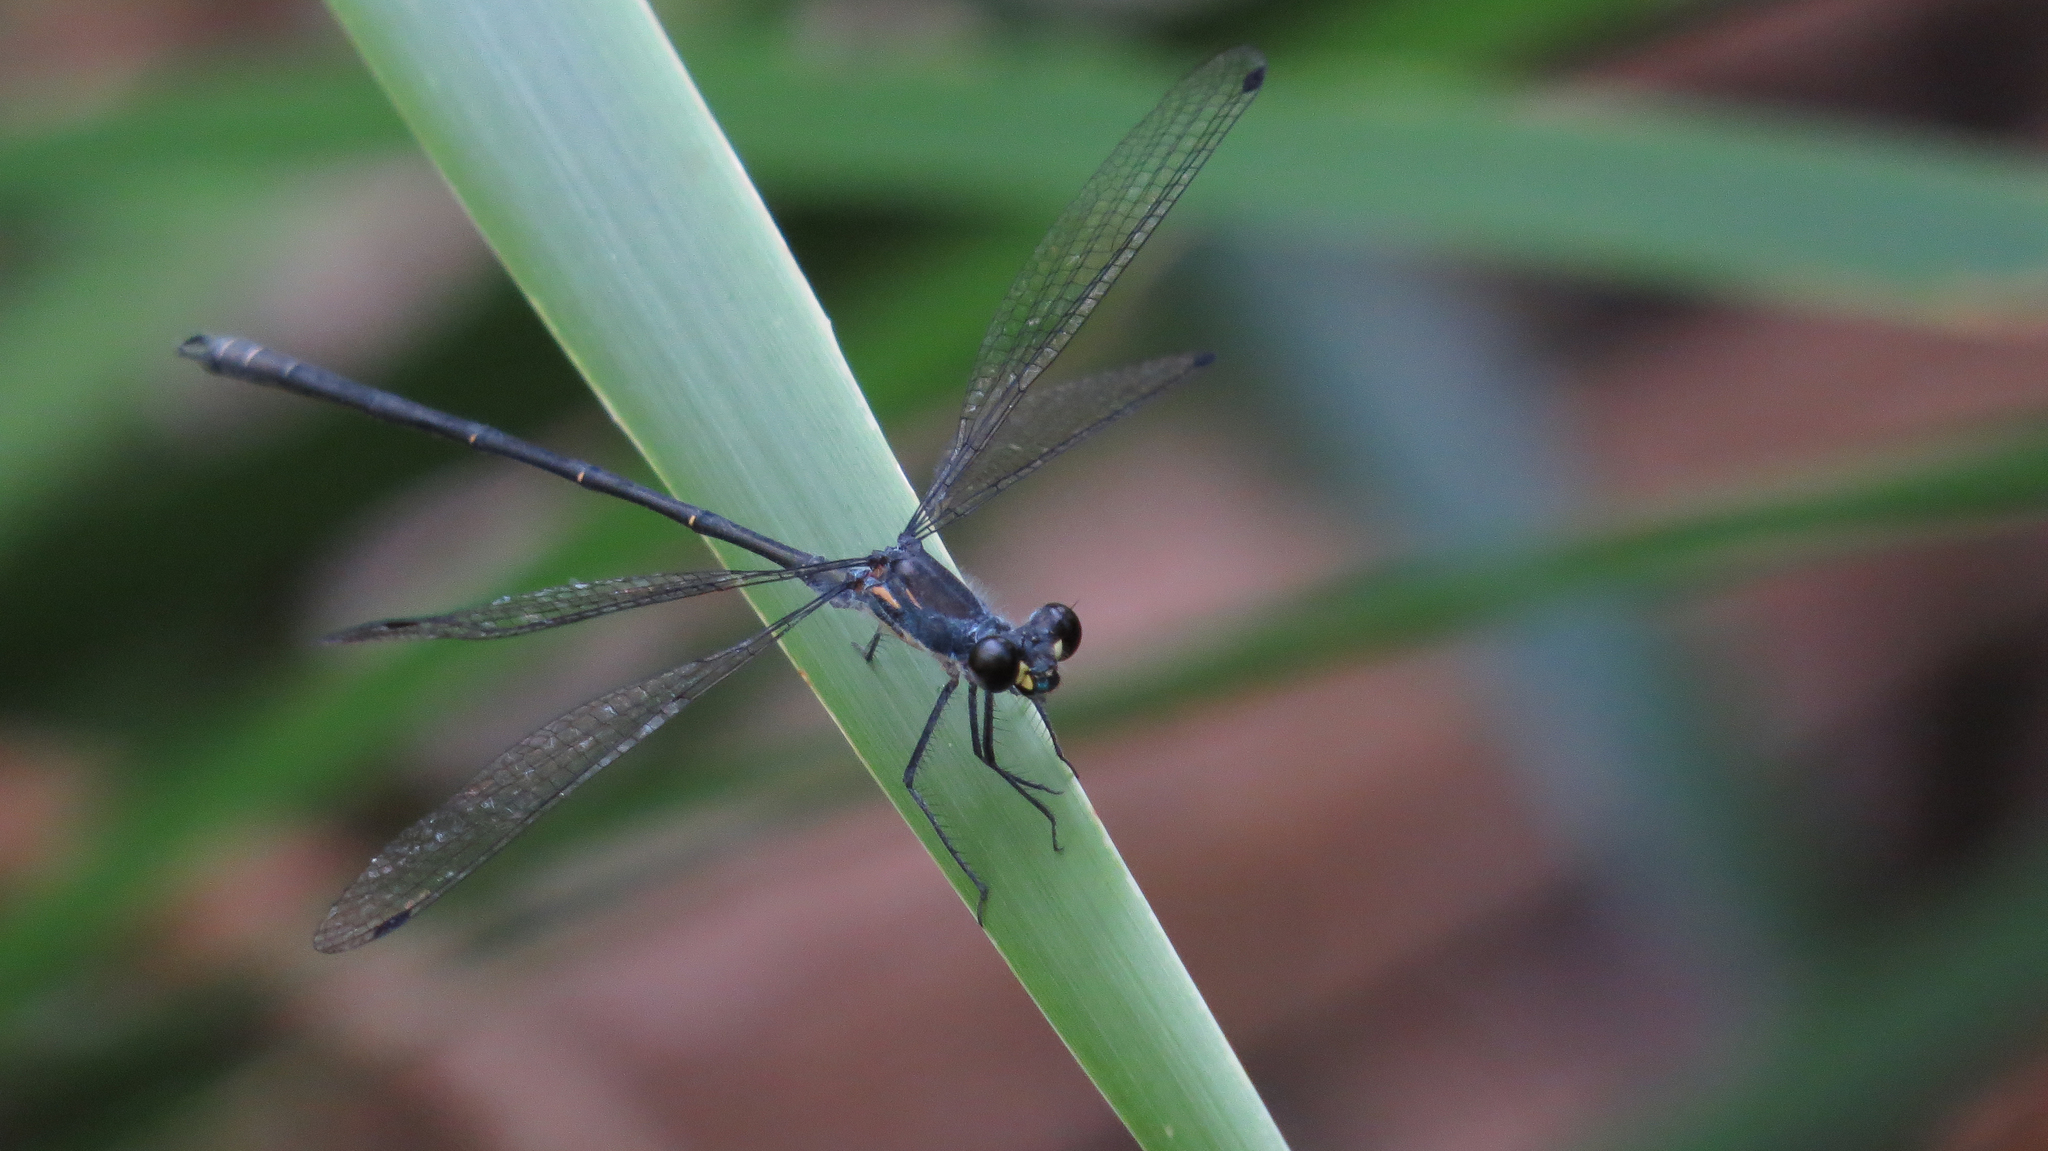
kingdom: Animalia
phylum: Arthropoda
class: Insecta
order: Odonata
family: Argiolestidae
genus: Austroargiolestes
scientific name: Austroargiolestes icteromelas
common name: Common flatwing
